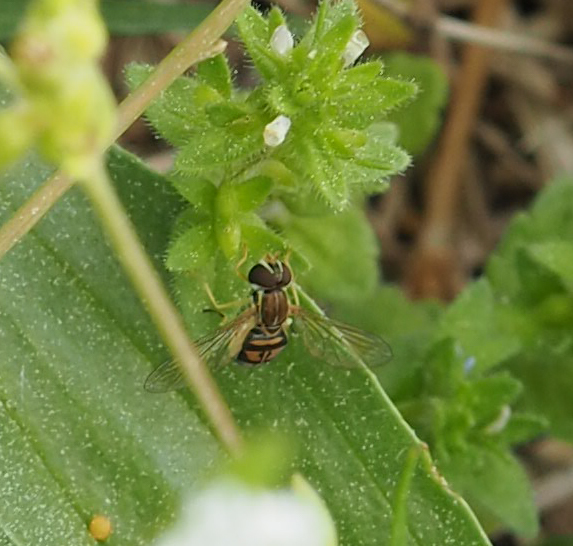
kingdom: Animalia
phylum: Arthropoda
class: Insecta
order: Diptera
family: Syrphidae
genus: Toxomerus
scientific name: Toxomerus marginatus
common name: Syrphid fly
